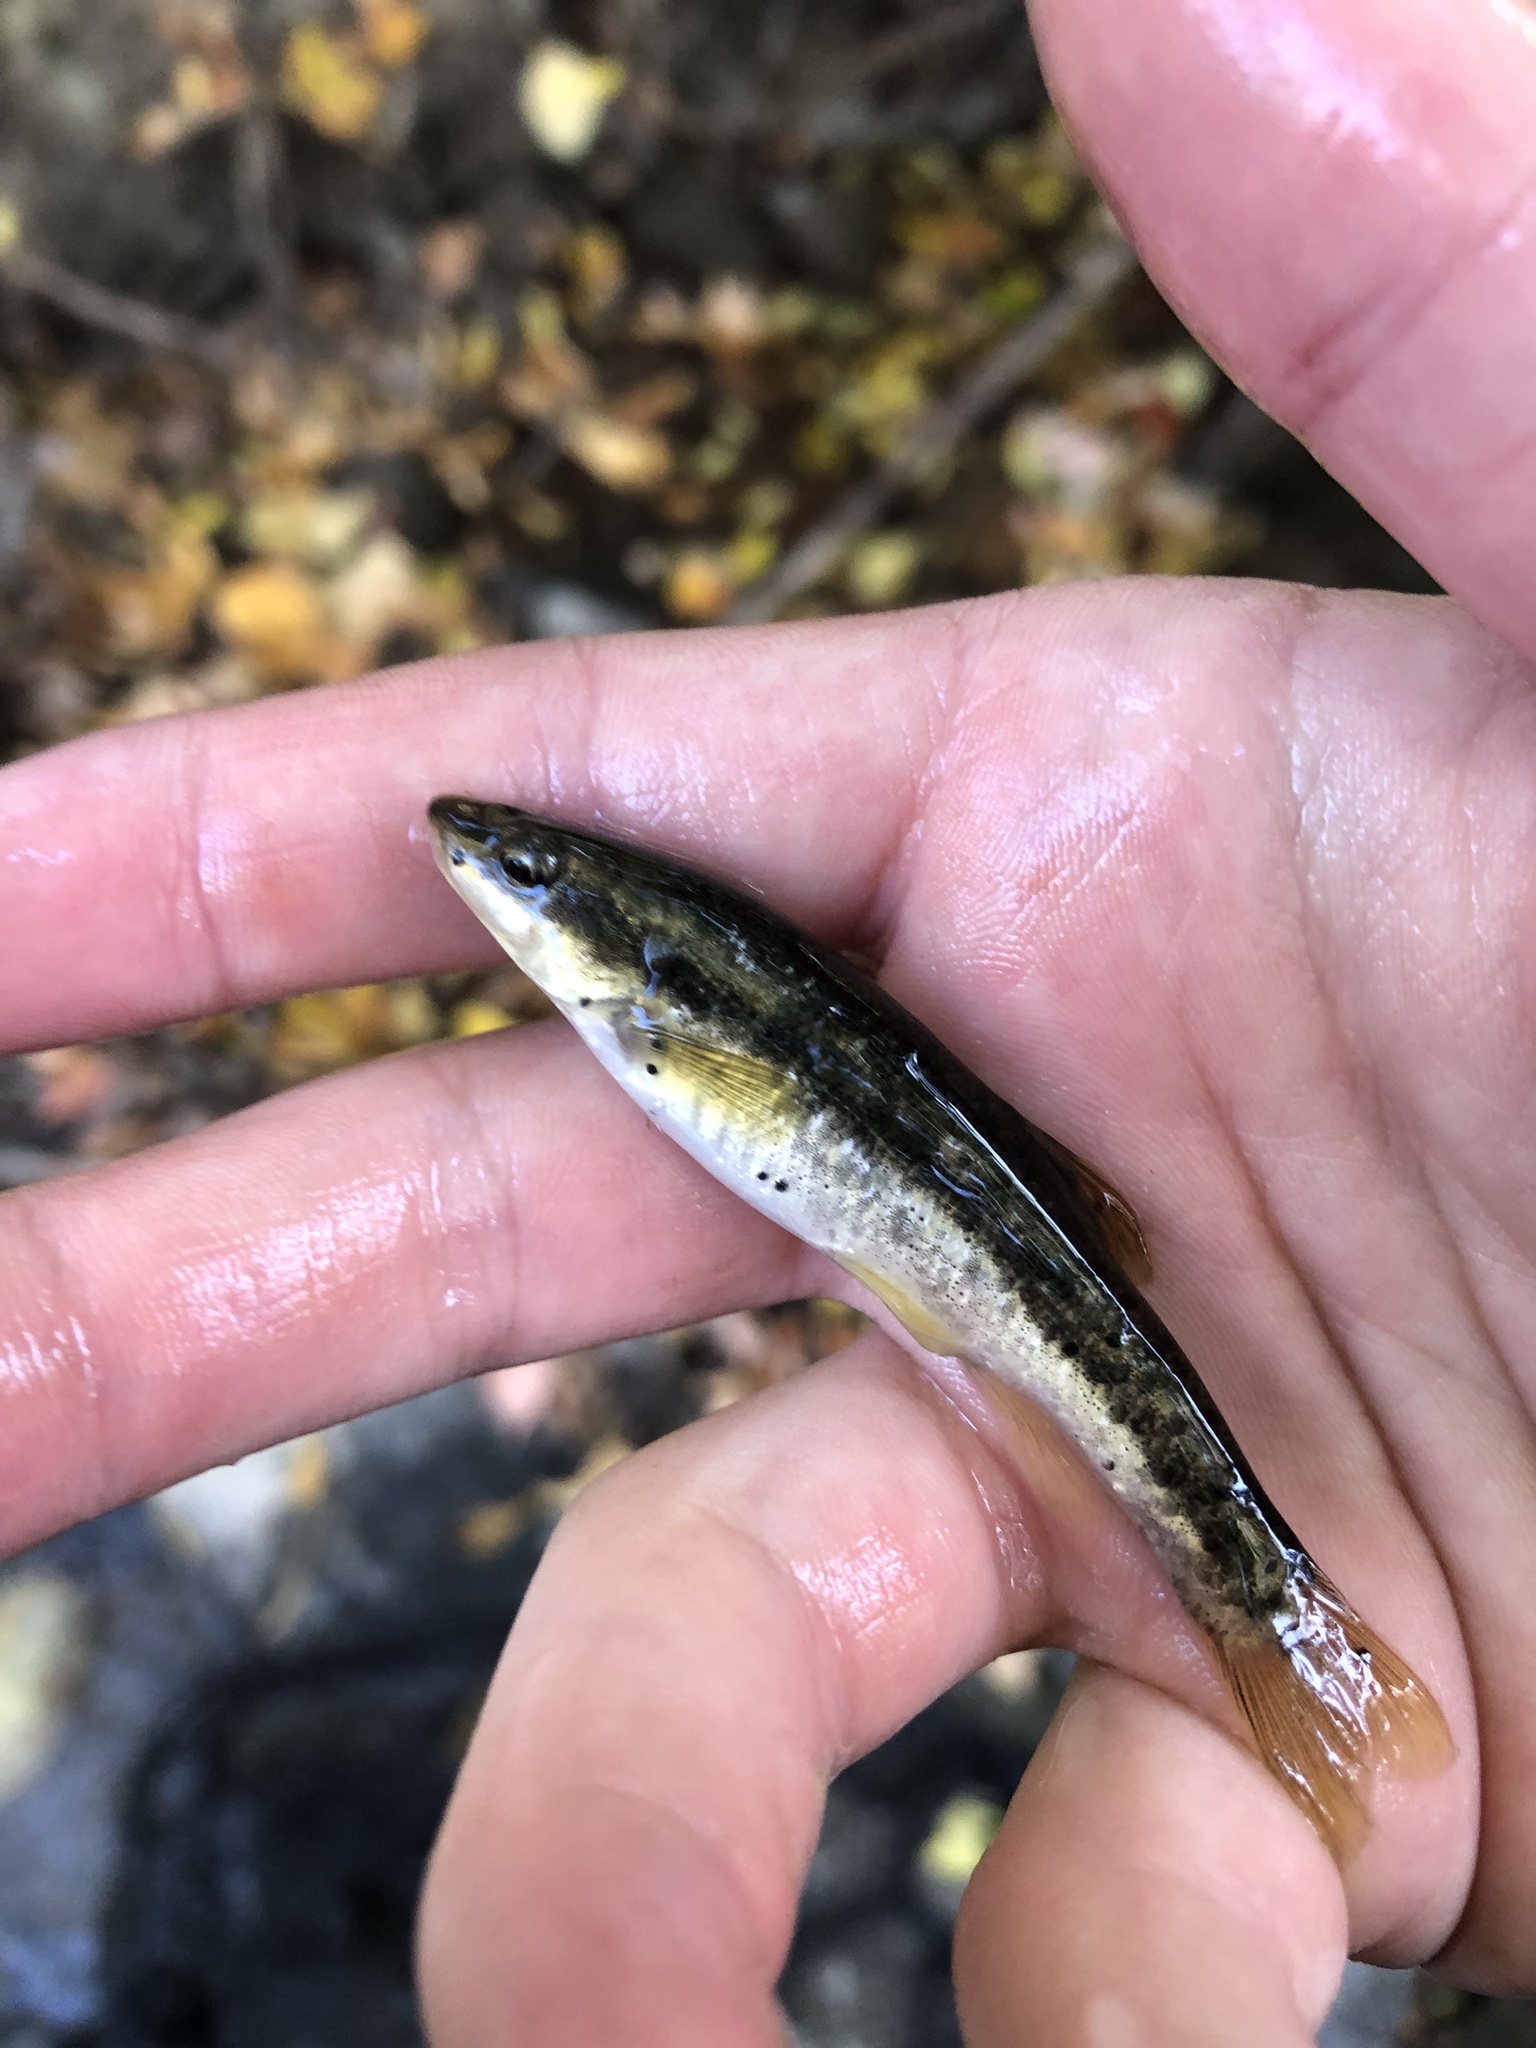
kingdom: Animalia
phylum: Platyhelminthes
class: Trematoda
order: Diplostomida
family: Diplostomidae
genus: Neascus
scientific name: Neascus
